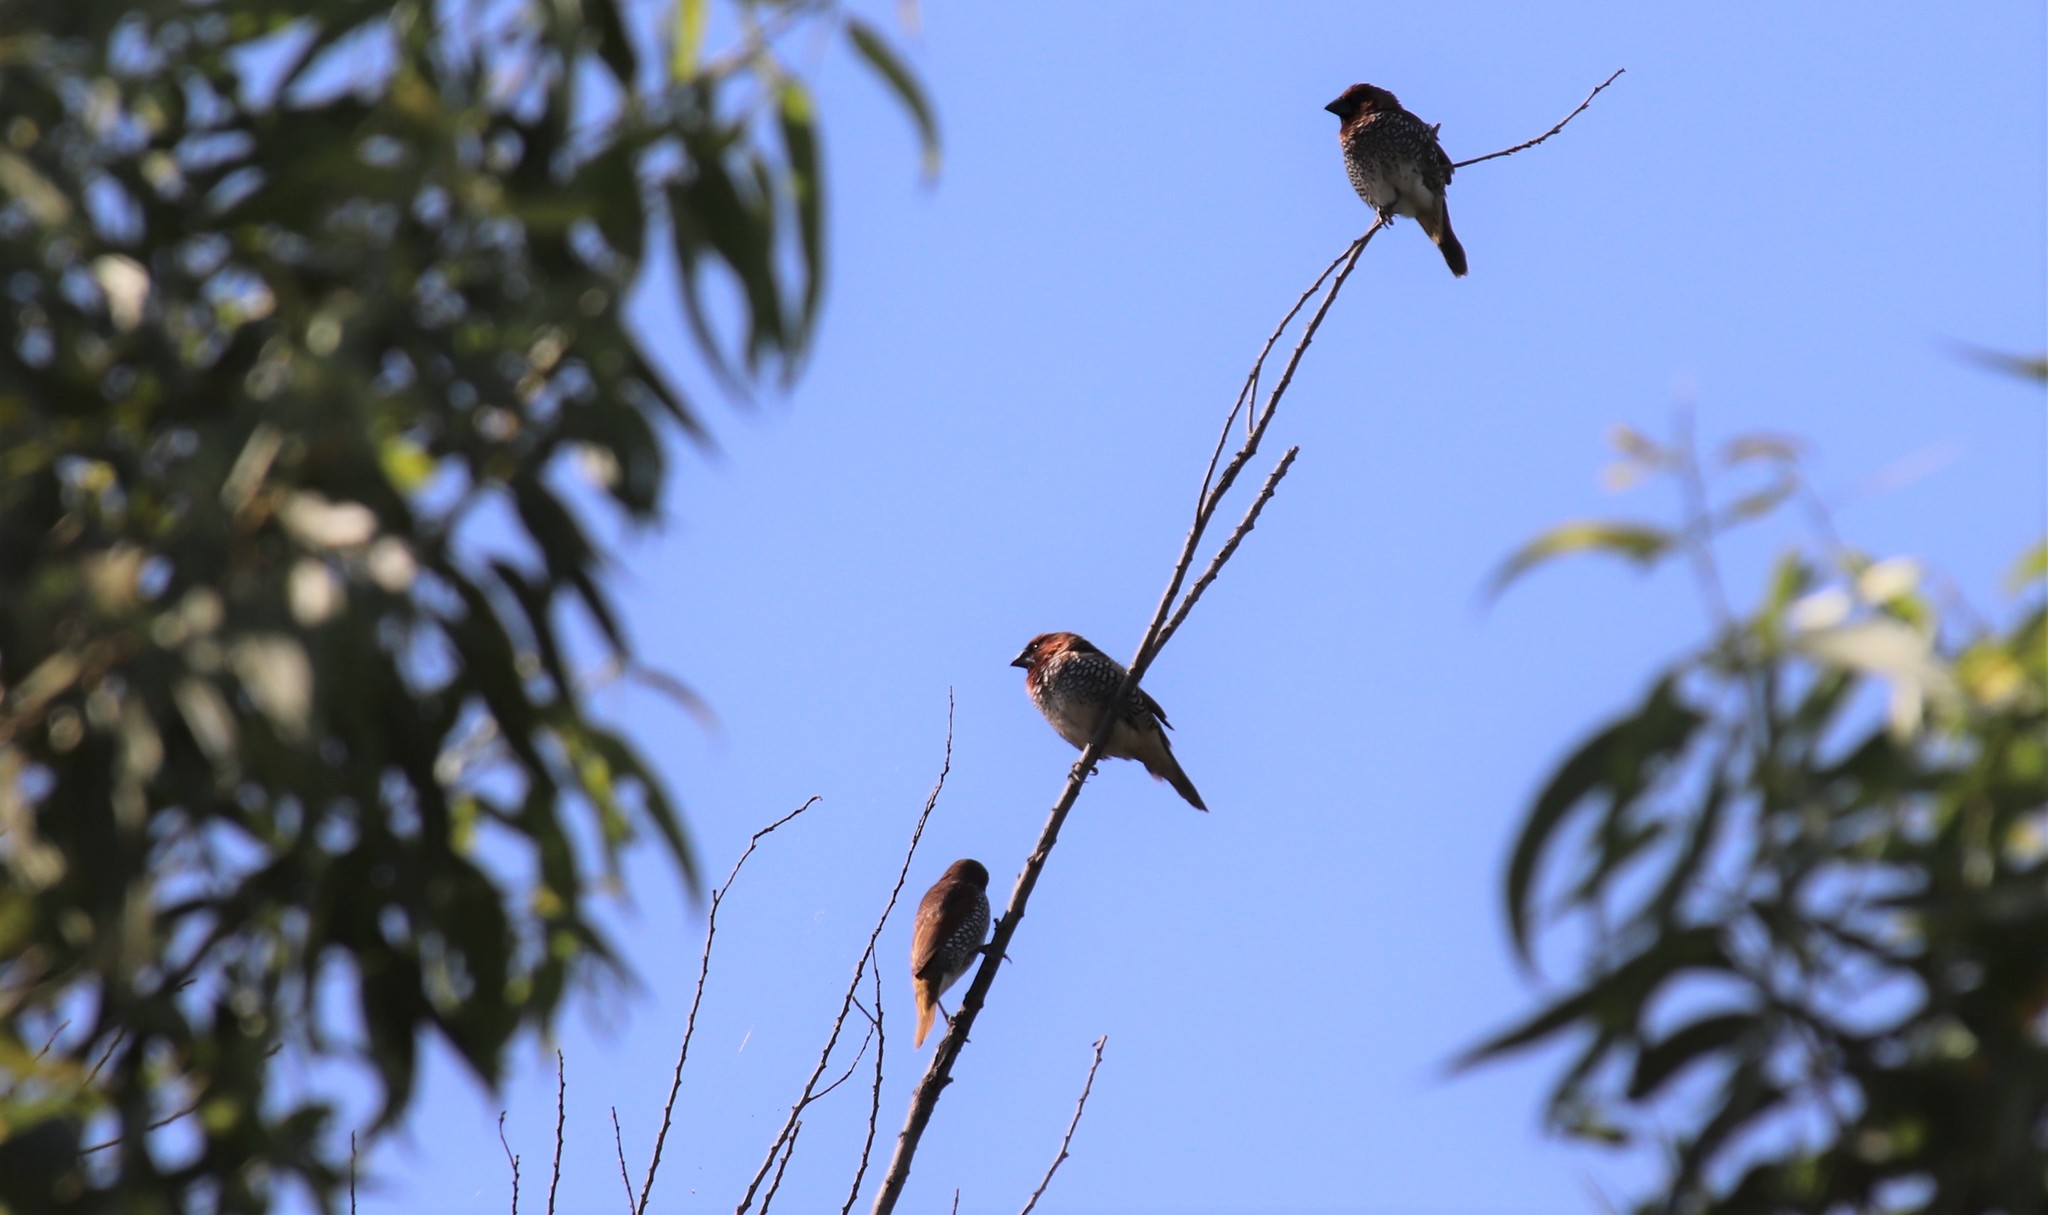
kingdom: Animalia
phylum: Chordata
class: Aves
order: Passeriformes
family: Estrildidae
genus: Lonchura
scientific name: Lonchura punctulata
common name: Scaly-breasted munia
